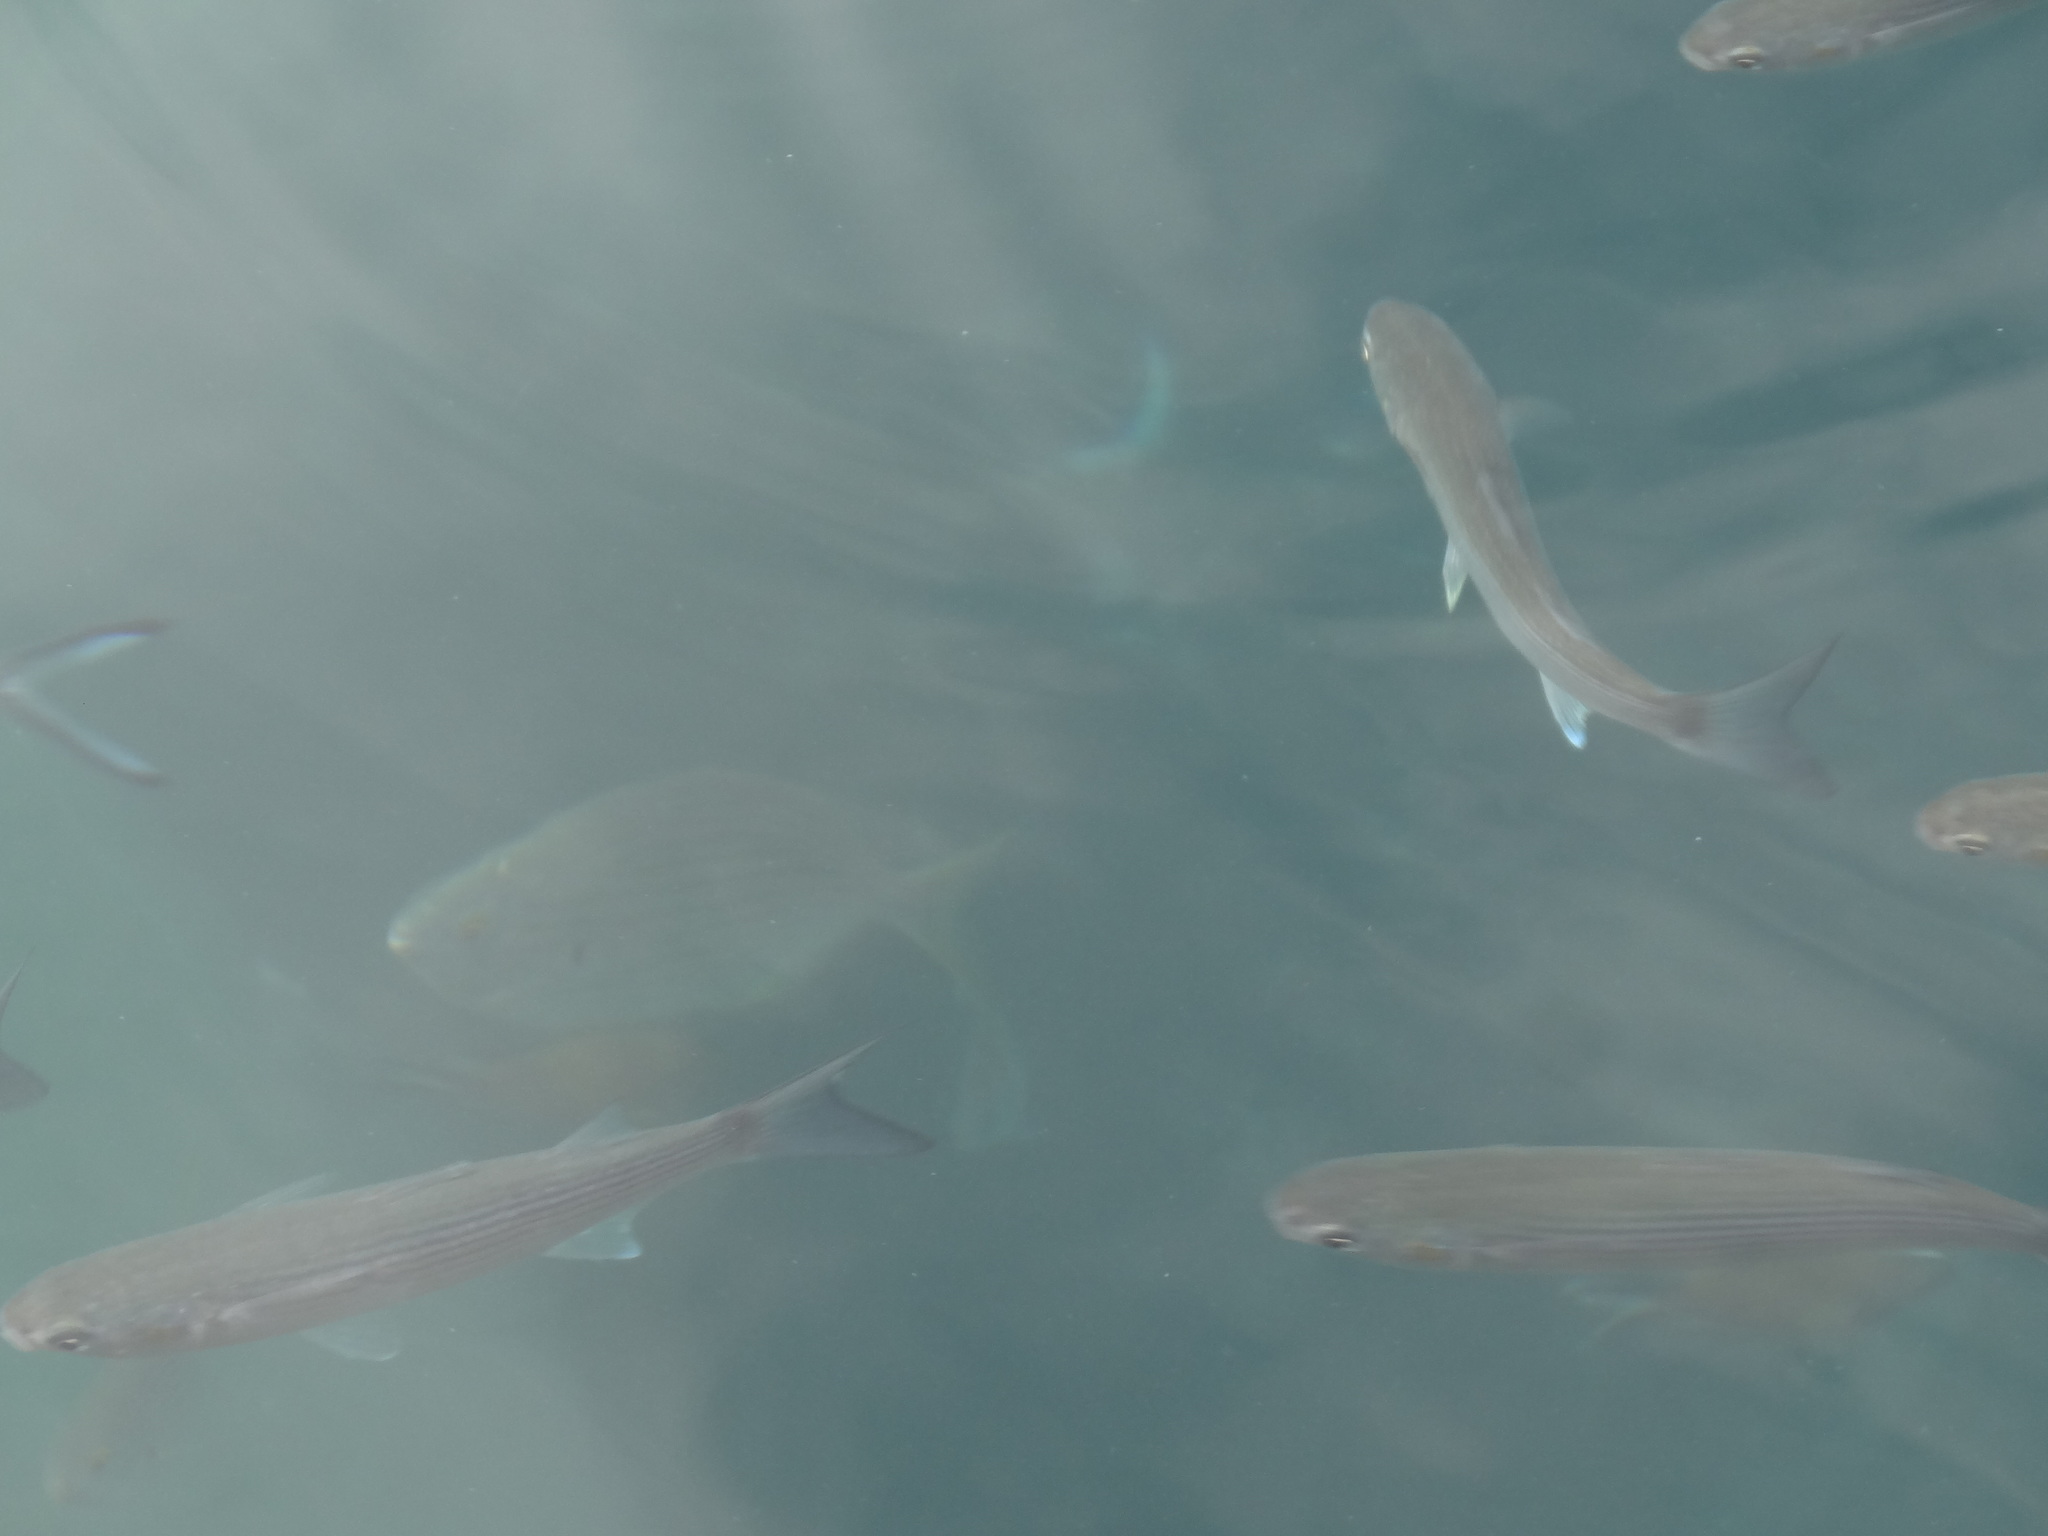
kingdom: Animalia
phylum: Chordata
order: Perciformes
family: Sparidae
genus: Sarpa
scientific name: Sarpa salpa
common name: Salema
